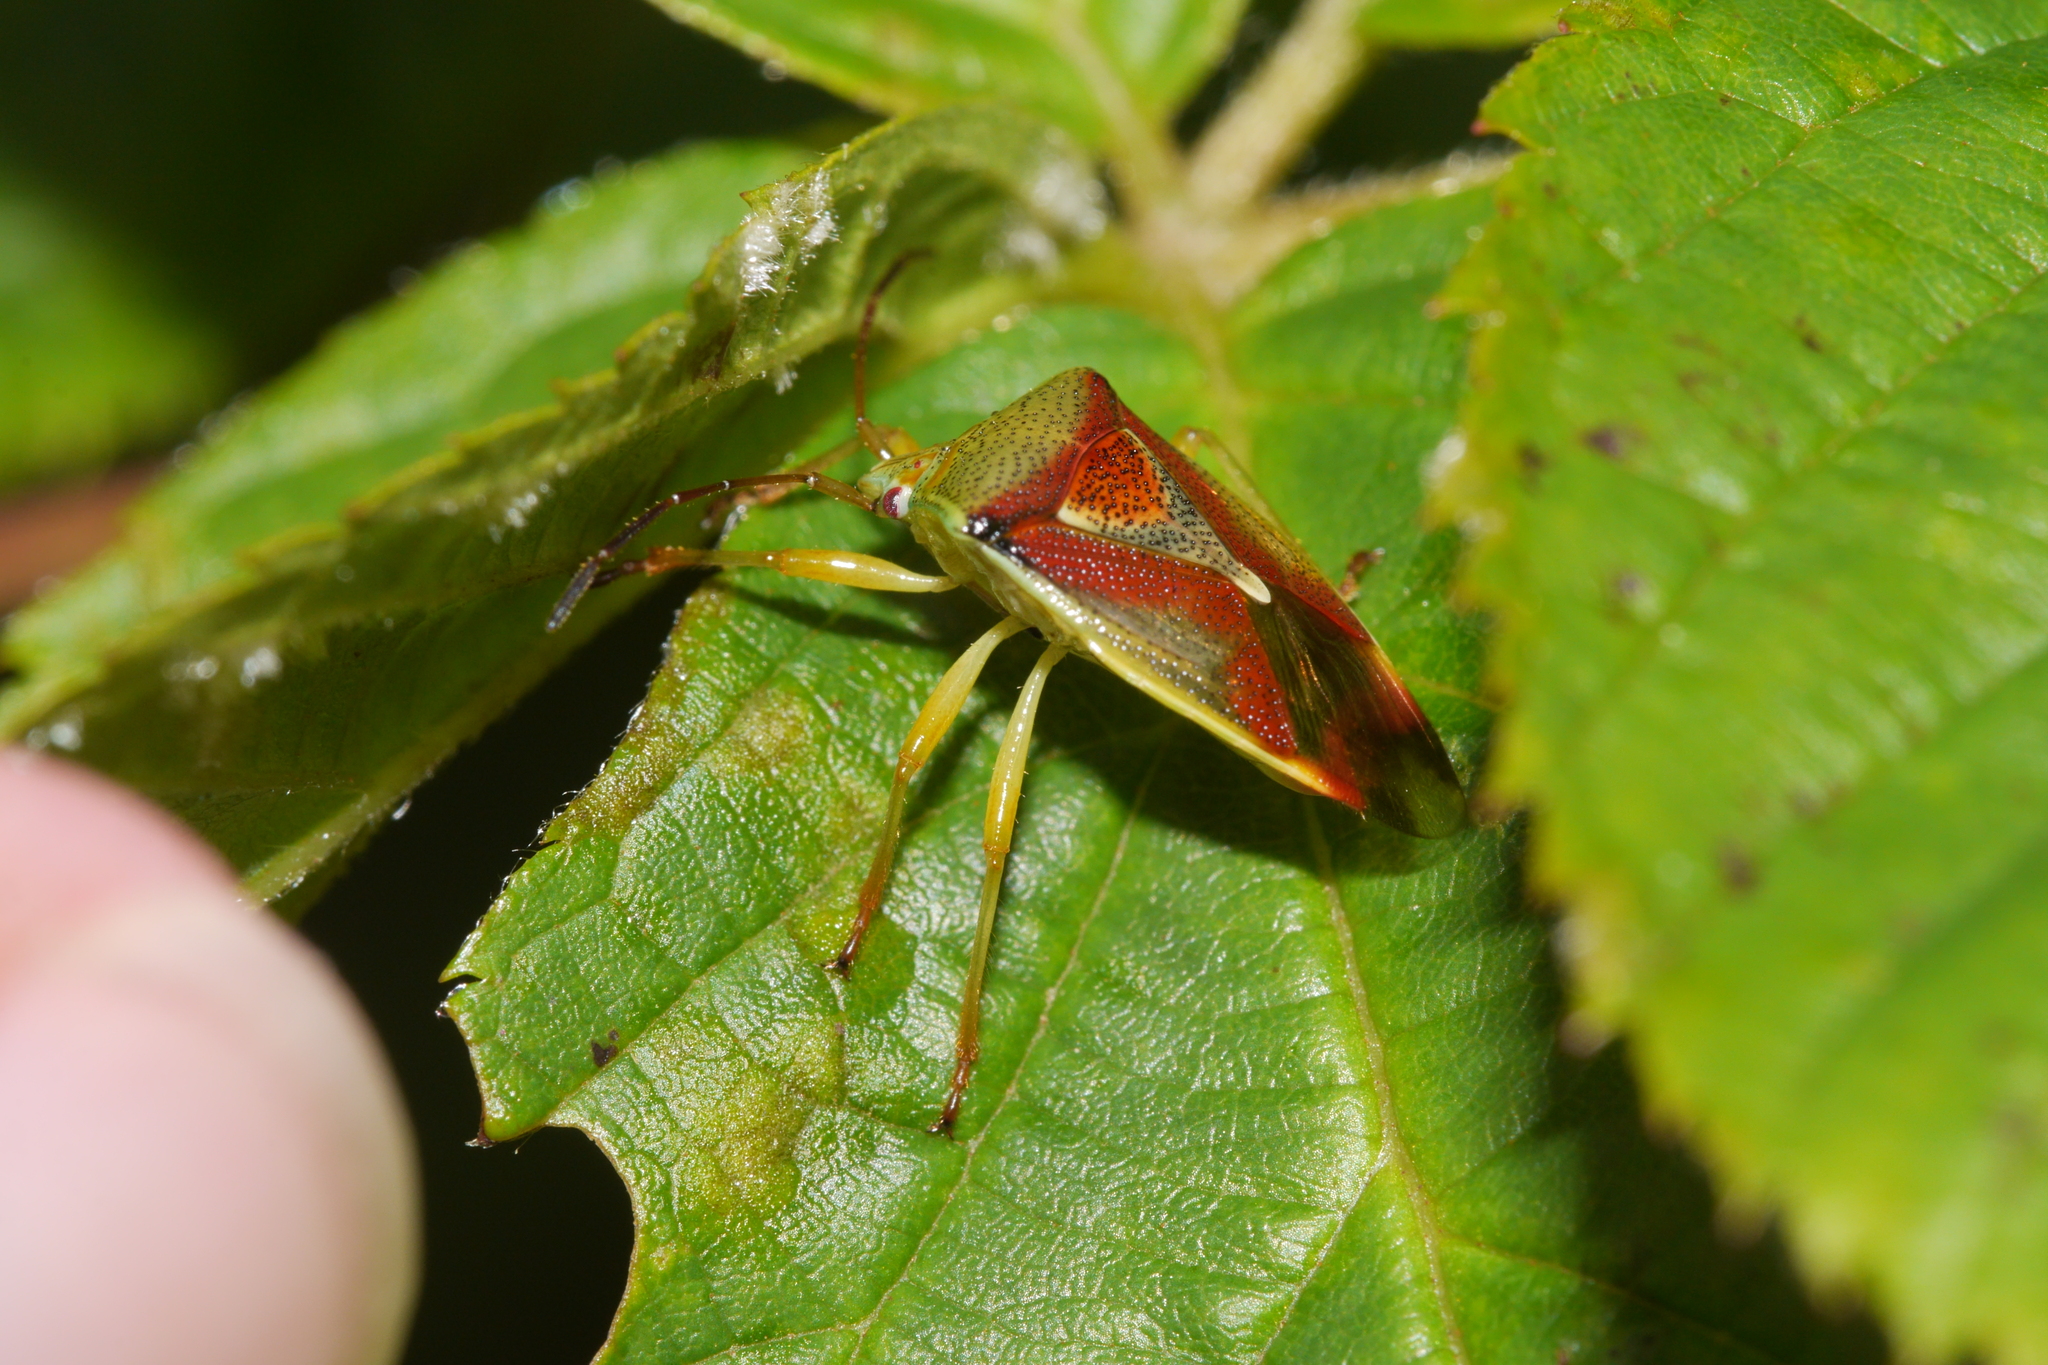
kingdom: Animalia
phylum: Arthropoda
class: Insecta
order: Hemiptera
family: Acanthosomatidae
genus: Elasmostethus
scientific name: Elasmostethus interstinctus
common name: Birch shieldbug
